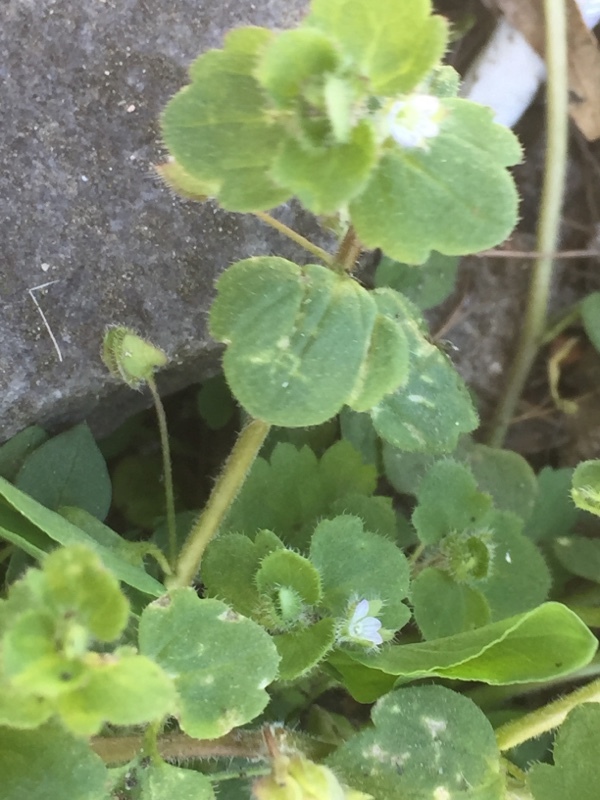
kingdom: Plantae
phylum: Tracheophyta
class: Magnoliopsida
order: Lamiales
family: Plantaginaceae
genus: Veronica
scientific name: Veronica hederifolia
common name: Ivy-leaved speedwell
